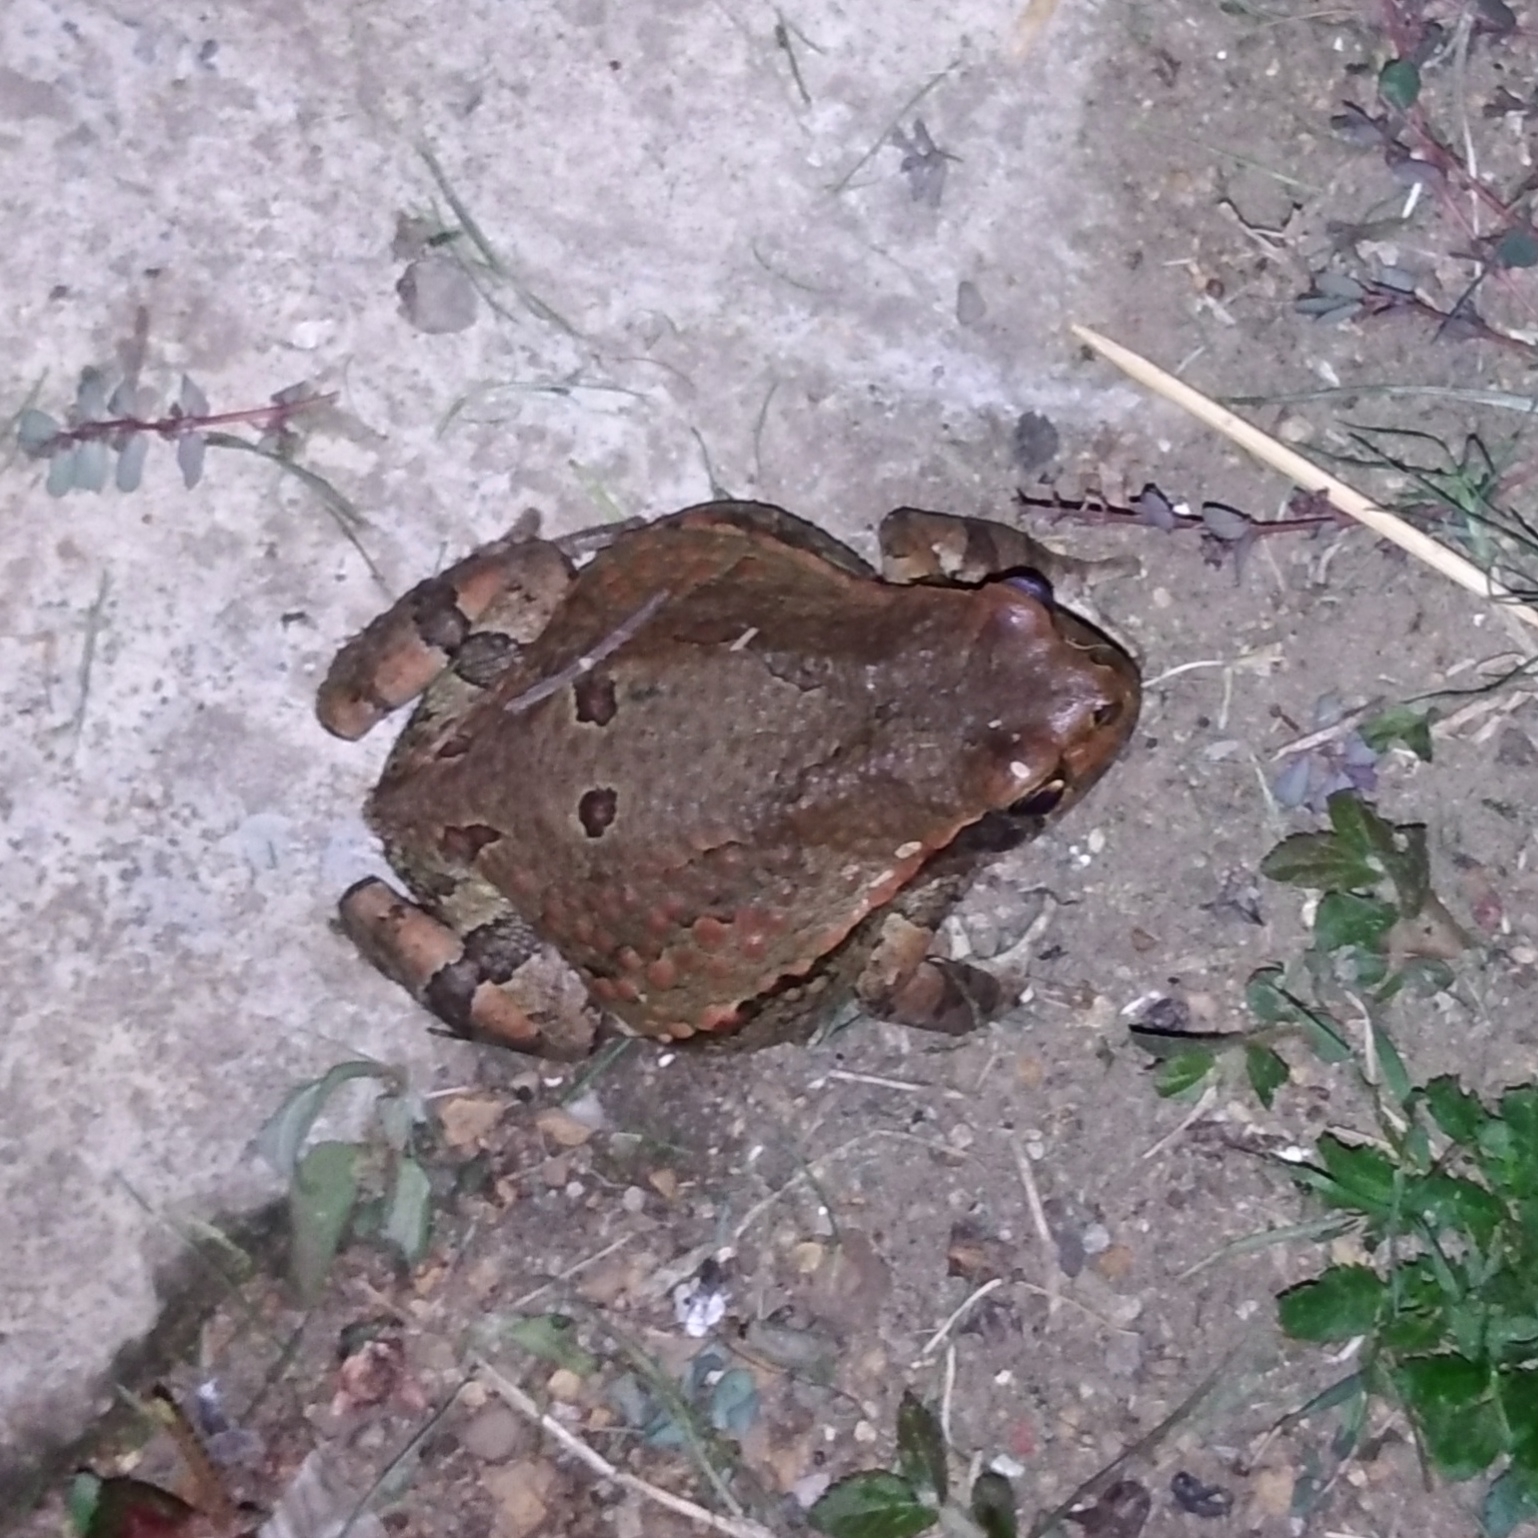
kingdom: Animalia
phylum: Chordata
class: Amphibia
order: Anura
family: Bufonidae
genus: Schismaderma
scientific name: Schismaderma carens
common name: African split-skin toad
